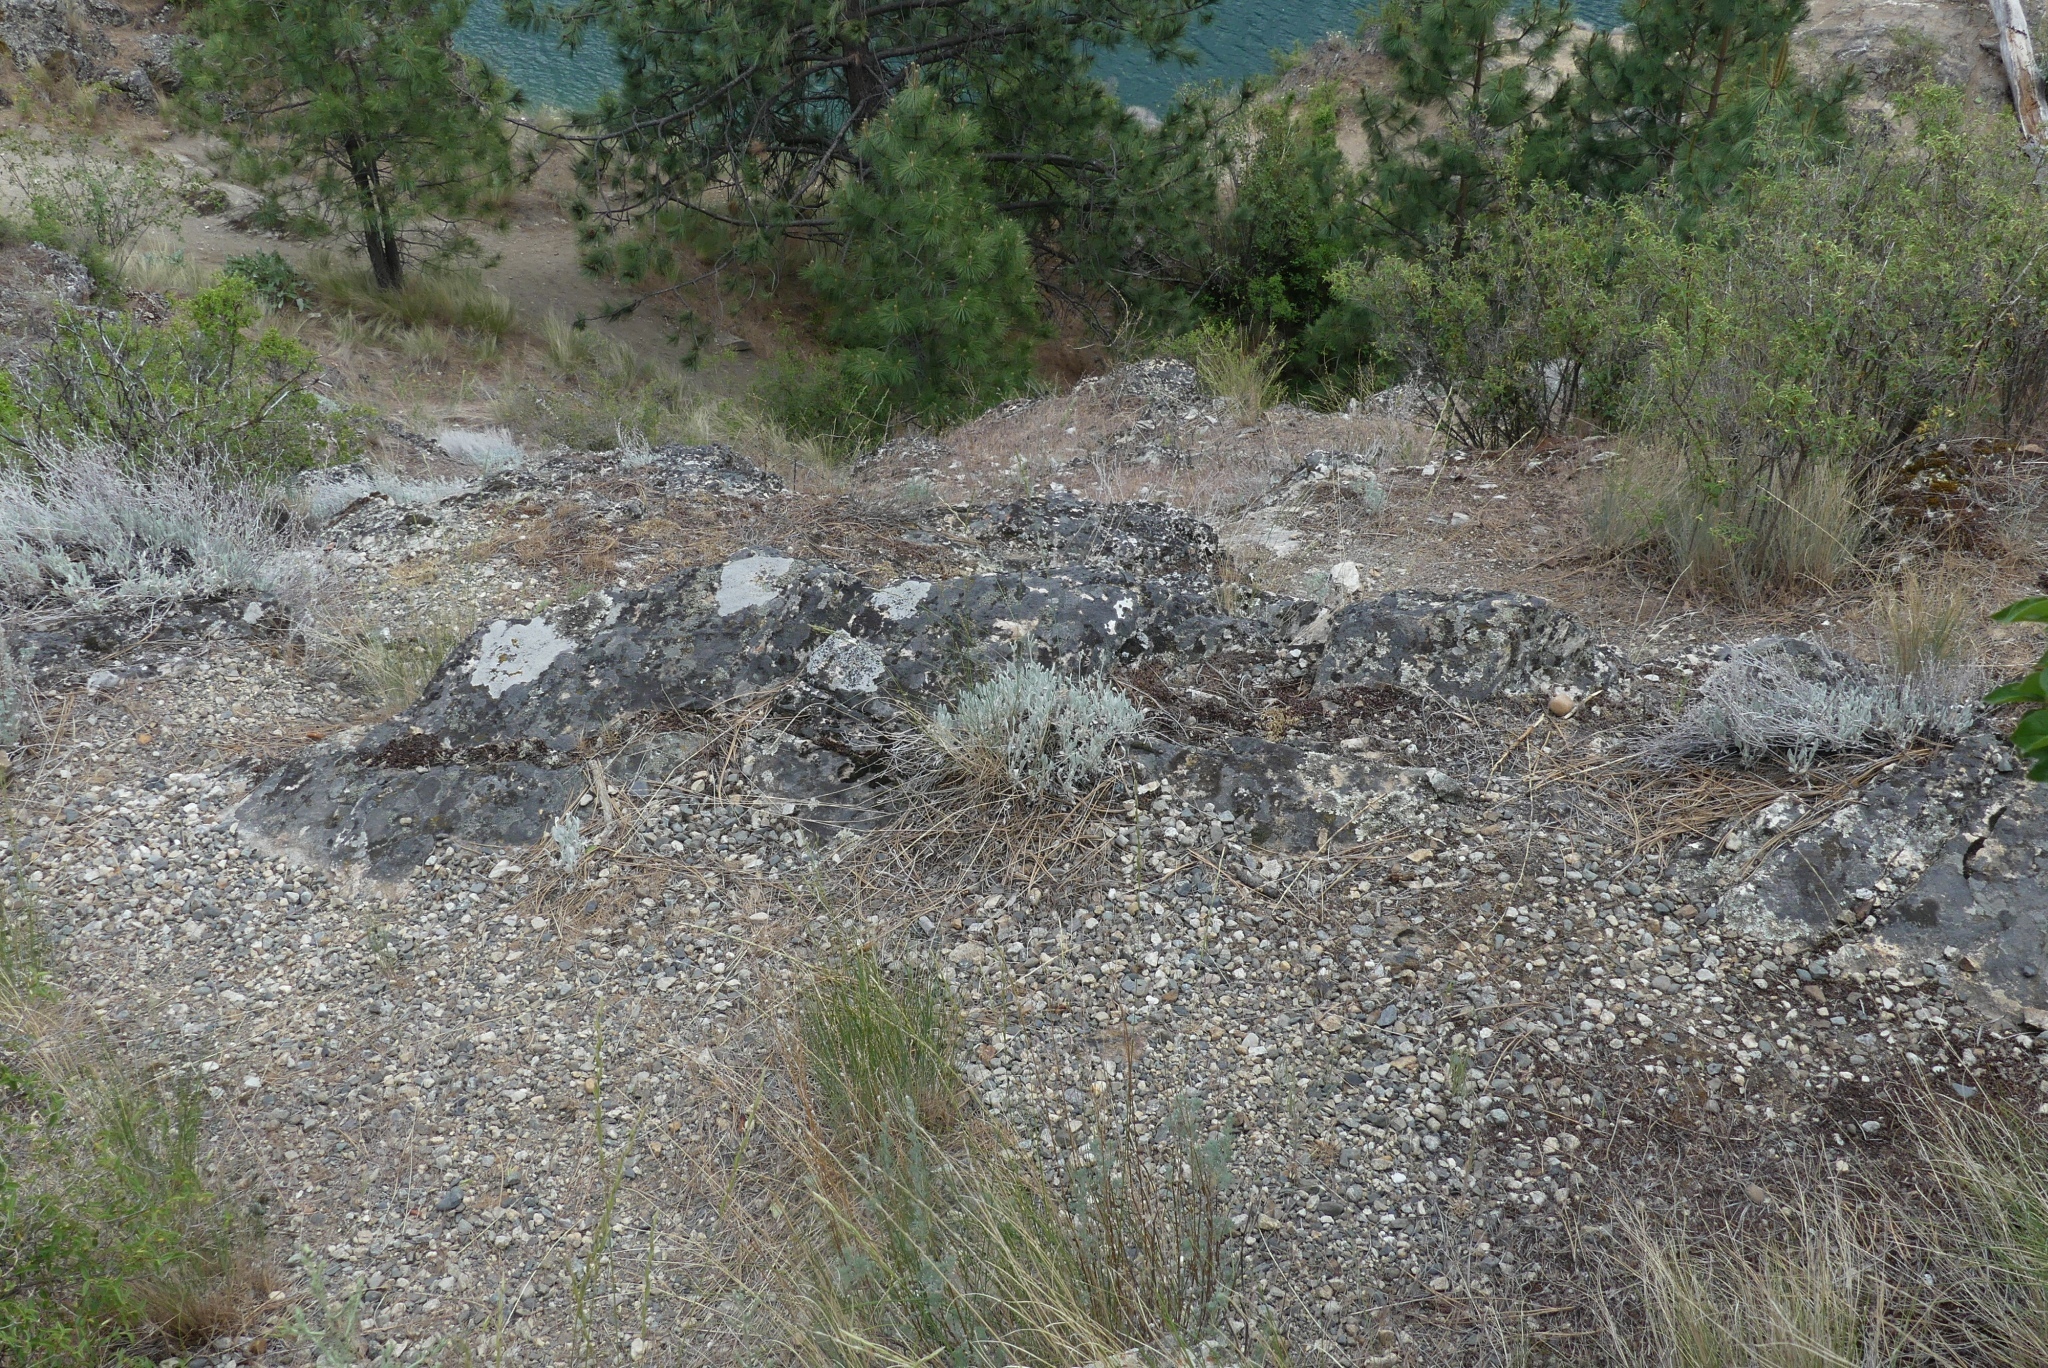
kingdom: Plantae
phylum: Tracheophyta
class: Magnoliopsida
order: Asterales
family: Asteraceae
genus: Ericameria
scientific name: Ericameria nauseosa
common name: Rubber rabbitbrush
